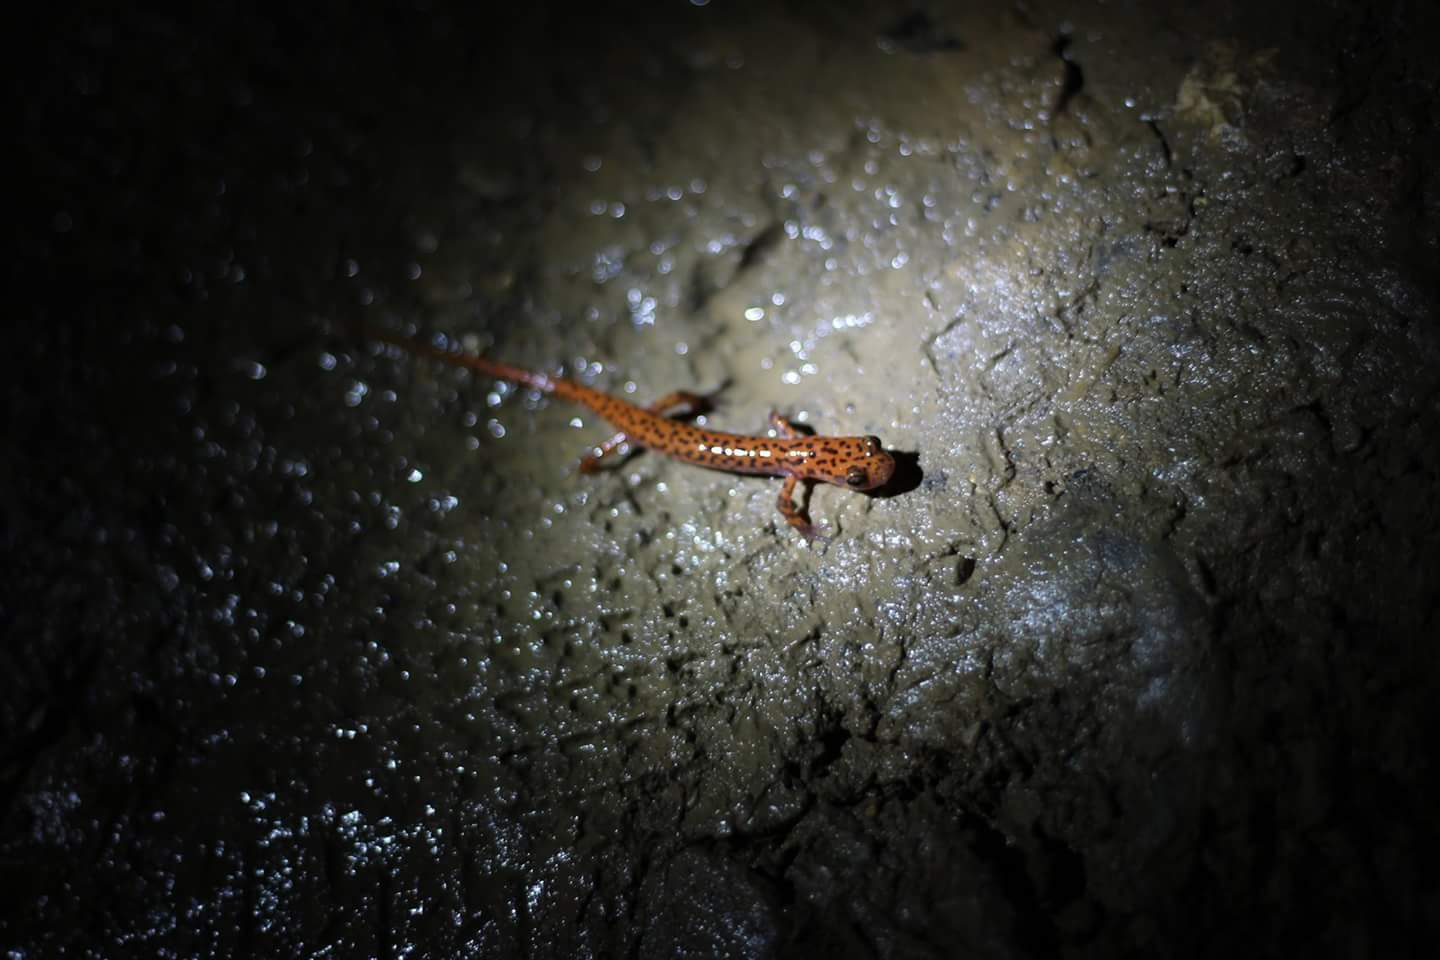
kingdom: Animalia
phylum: Chordata
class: Amphibia
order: Caudata
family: Plethodontidae
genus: Eurycea
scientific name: Eurycea lucifuga
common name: Cave salamander
